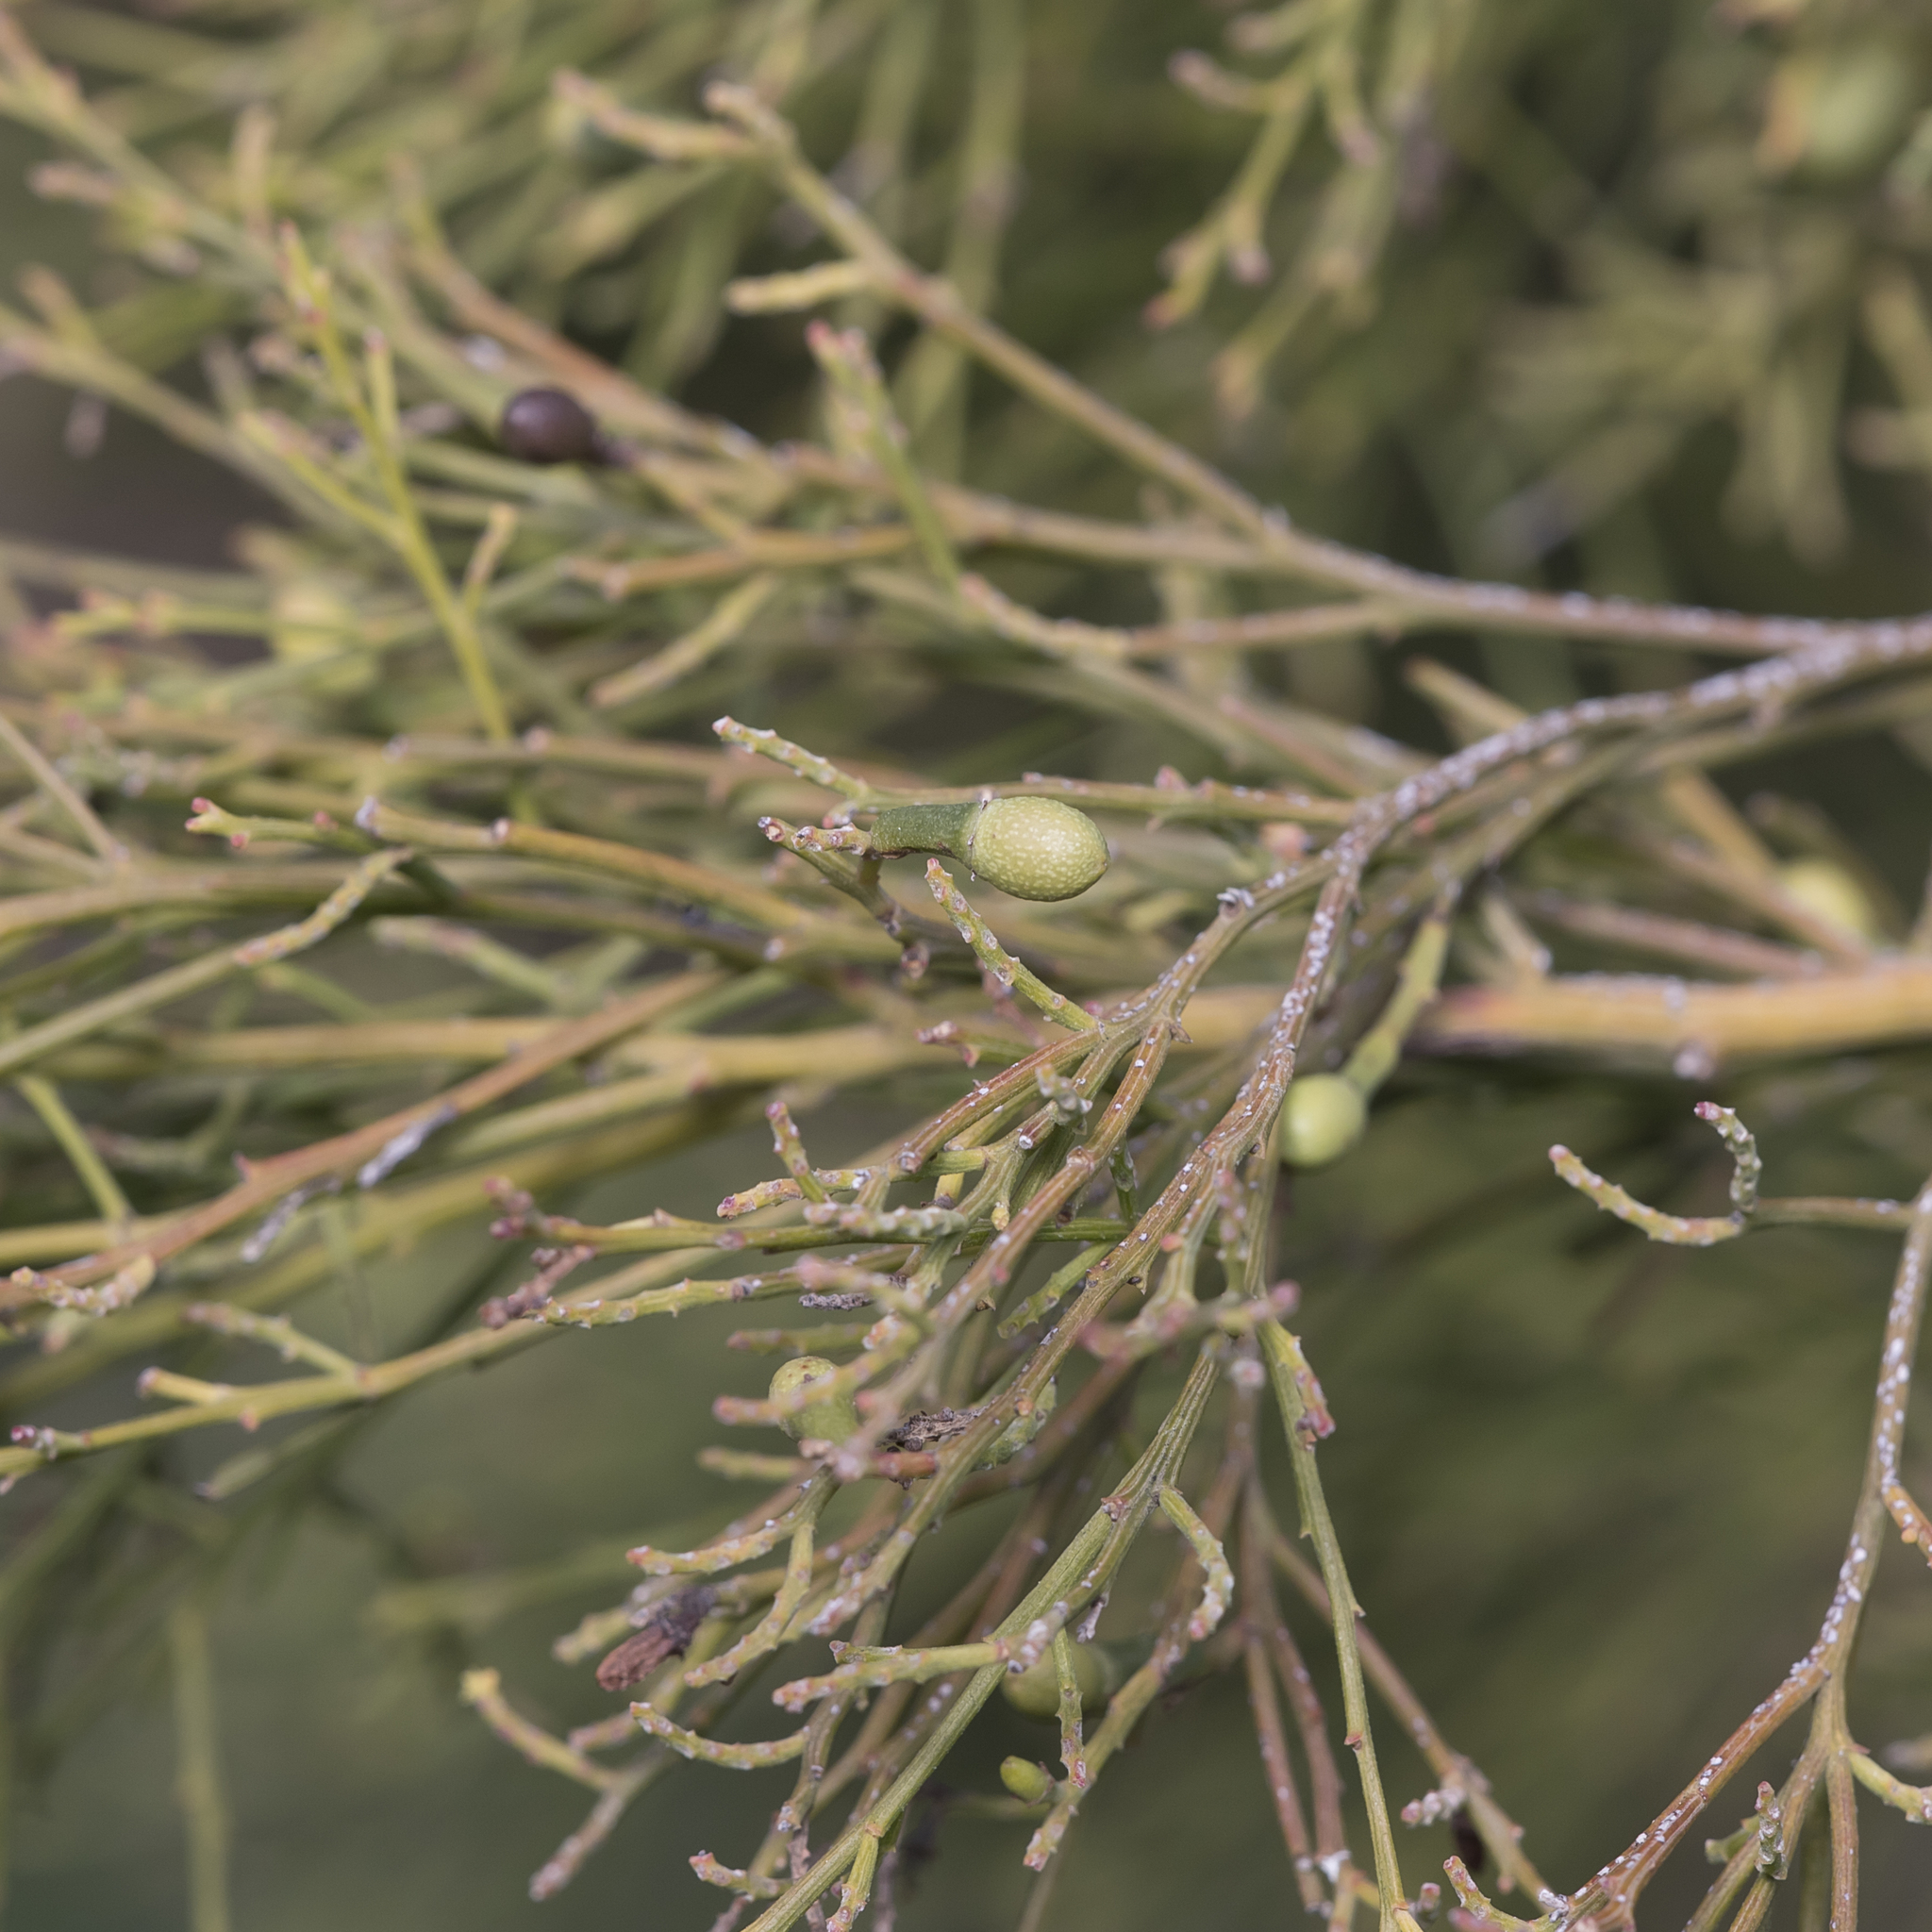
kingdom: Plantae
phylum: Tracheophyta
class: Magnoliopsida
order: Santalales
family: Santalaceae
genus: Exocarpos
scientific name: Exocarpos cupressiformis
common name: Cherry ballart
